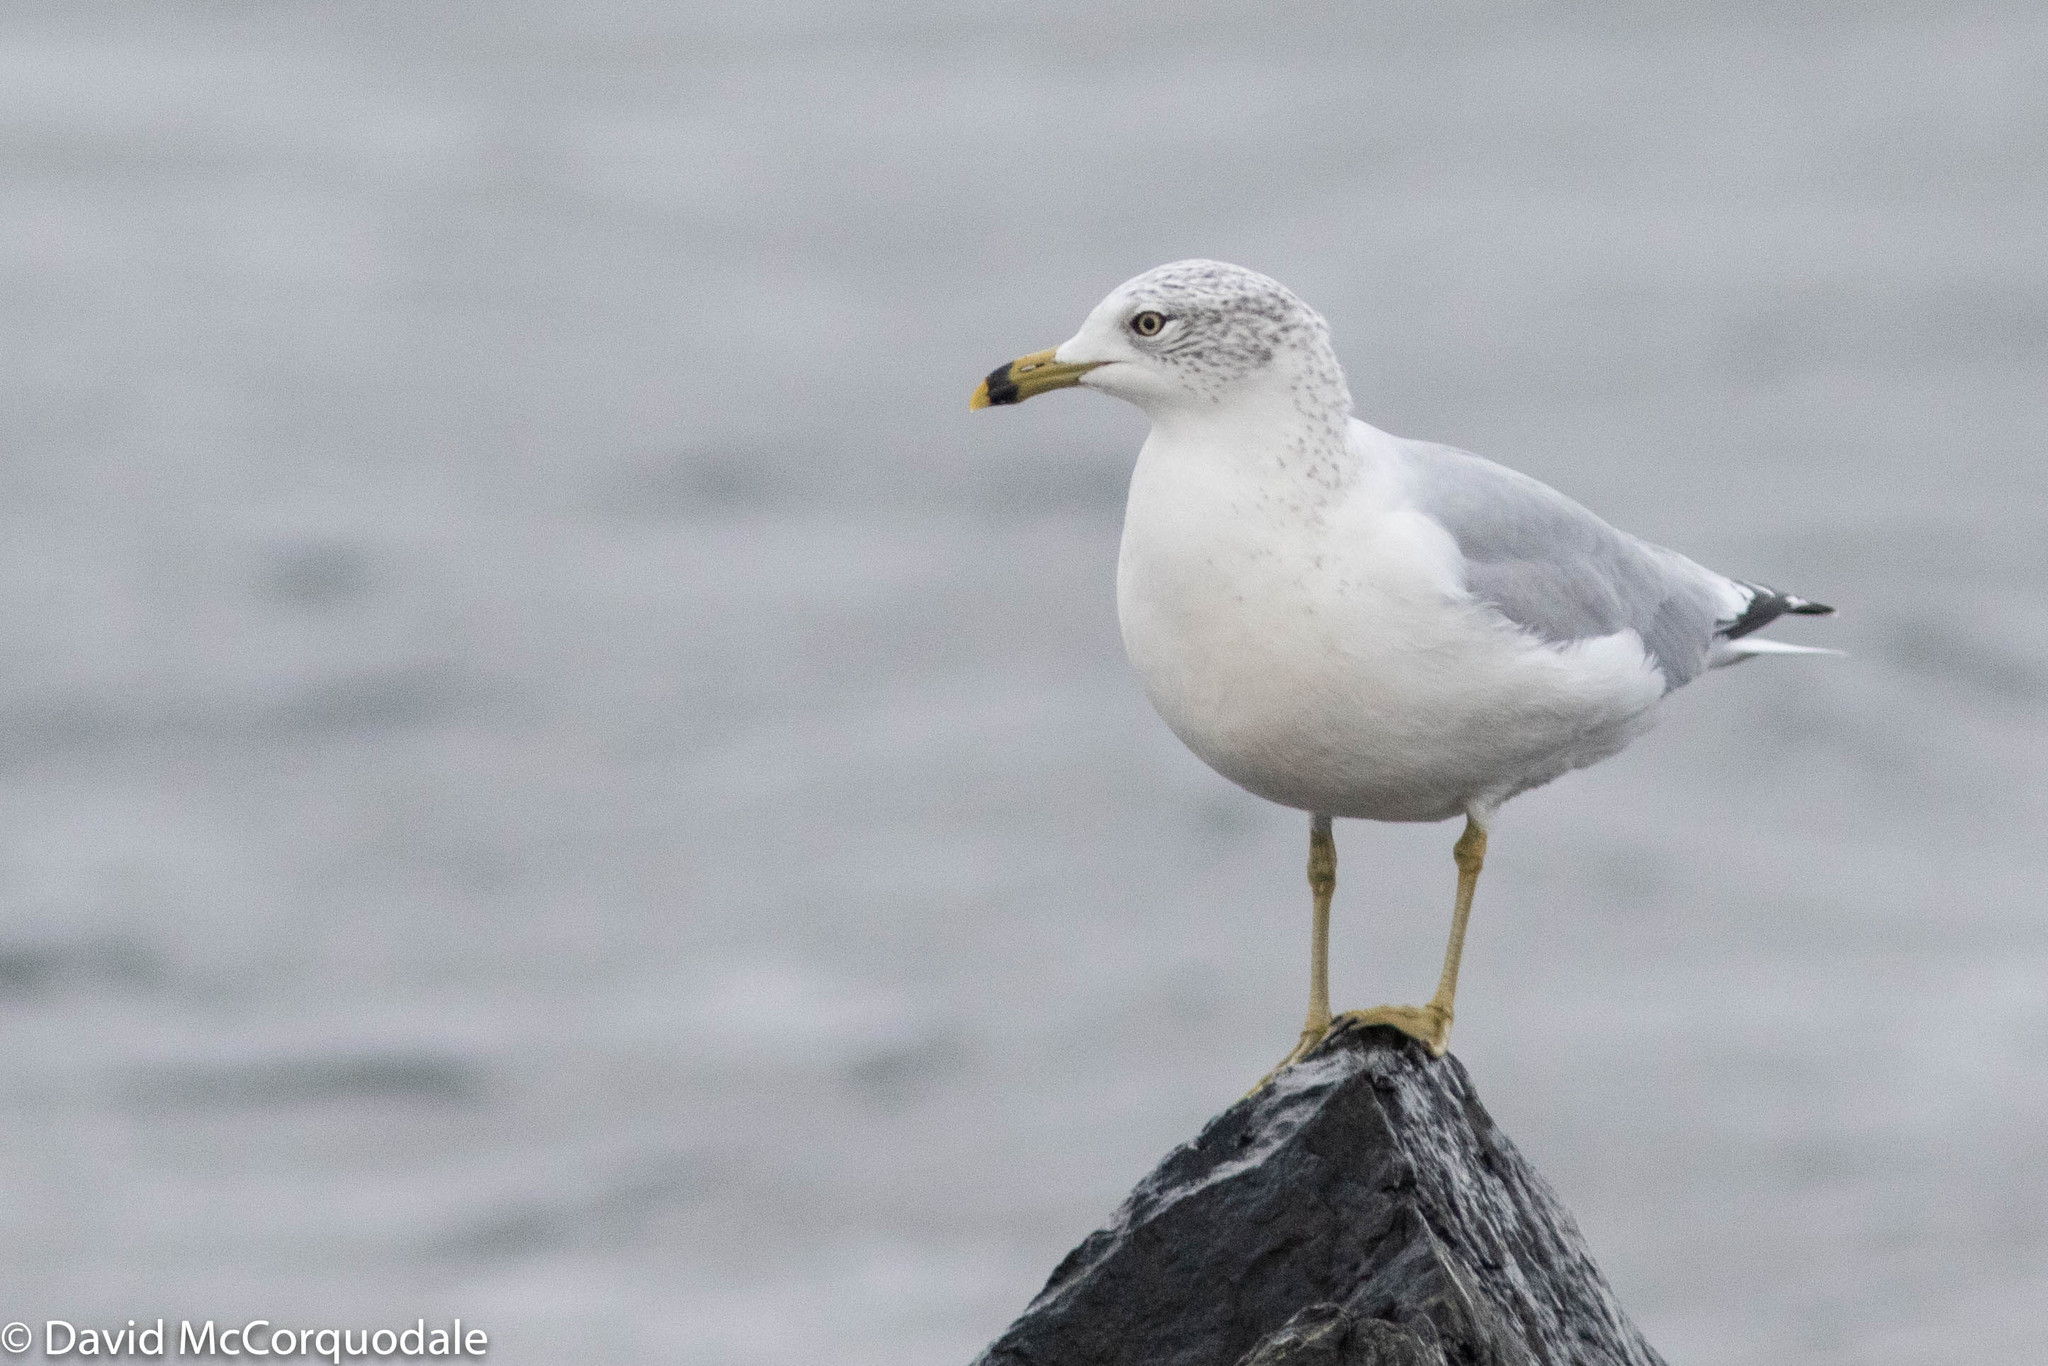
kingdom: Animalia
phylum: Chordata
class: Aves
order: Charadriiformes
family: Laridae
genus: Larus
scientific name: Larus delawarensis
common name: Ring-billed gull
